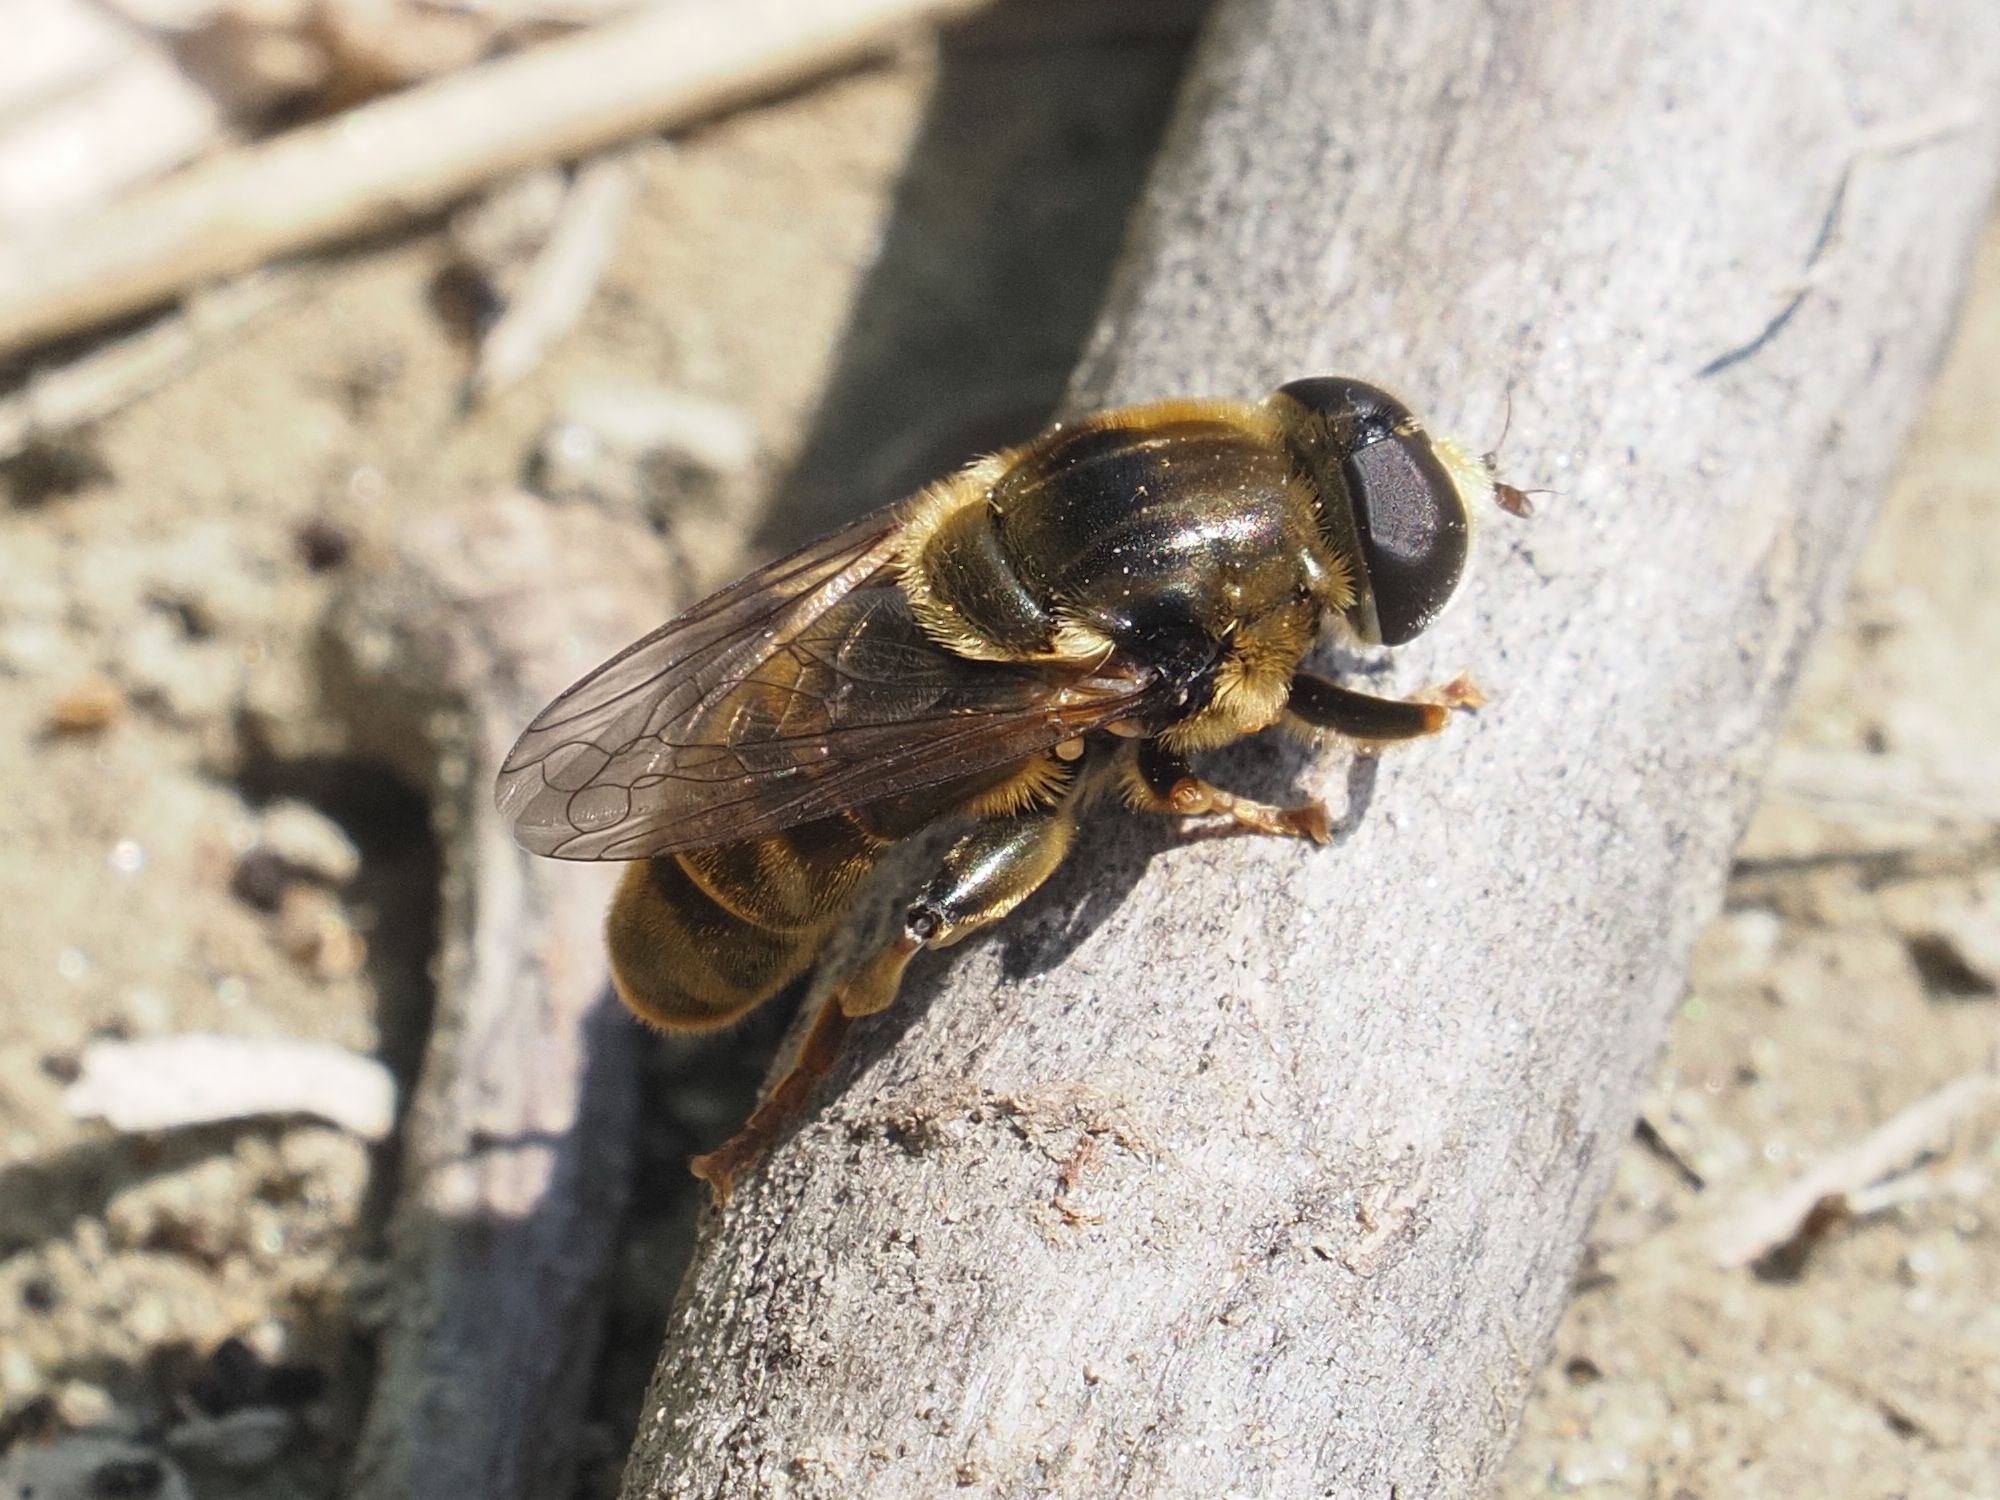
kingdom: Animalia
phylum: Arthropoda
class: Insecta
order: Diptera
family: Syrphidae
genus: Merodon
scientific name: Merodon avidus
